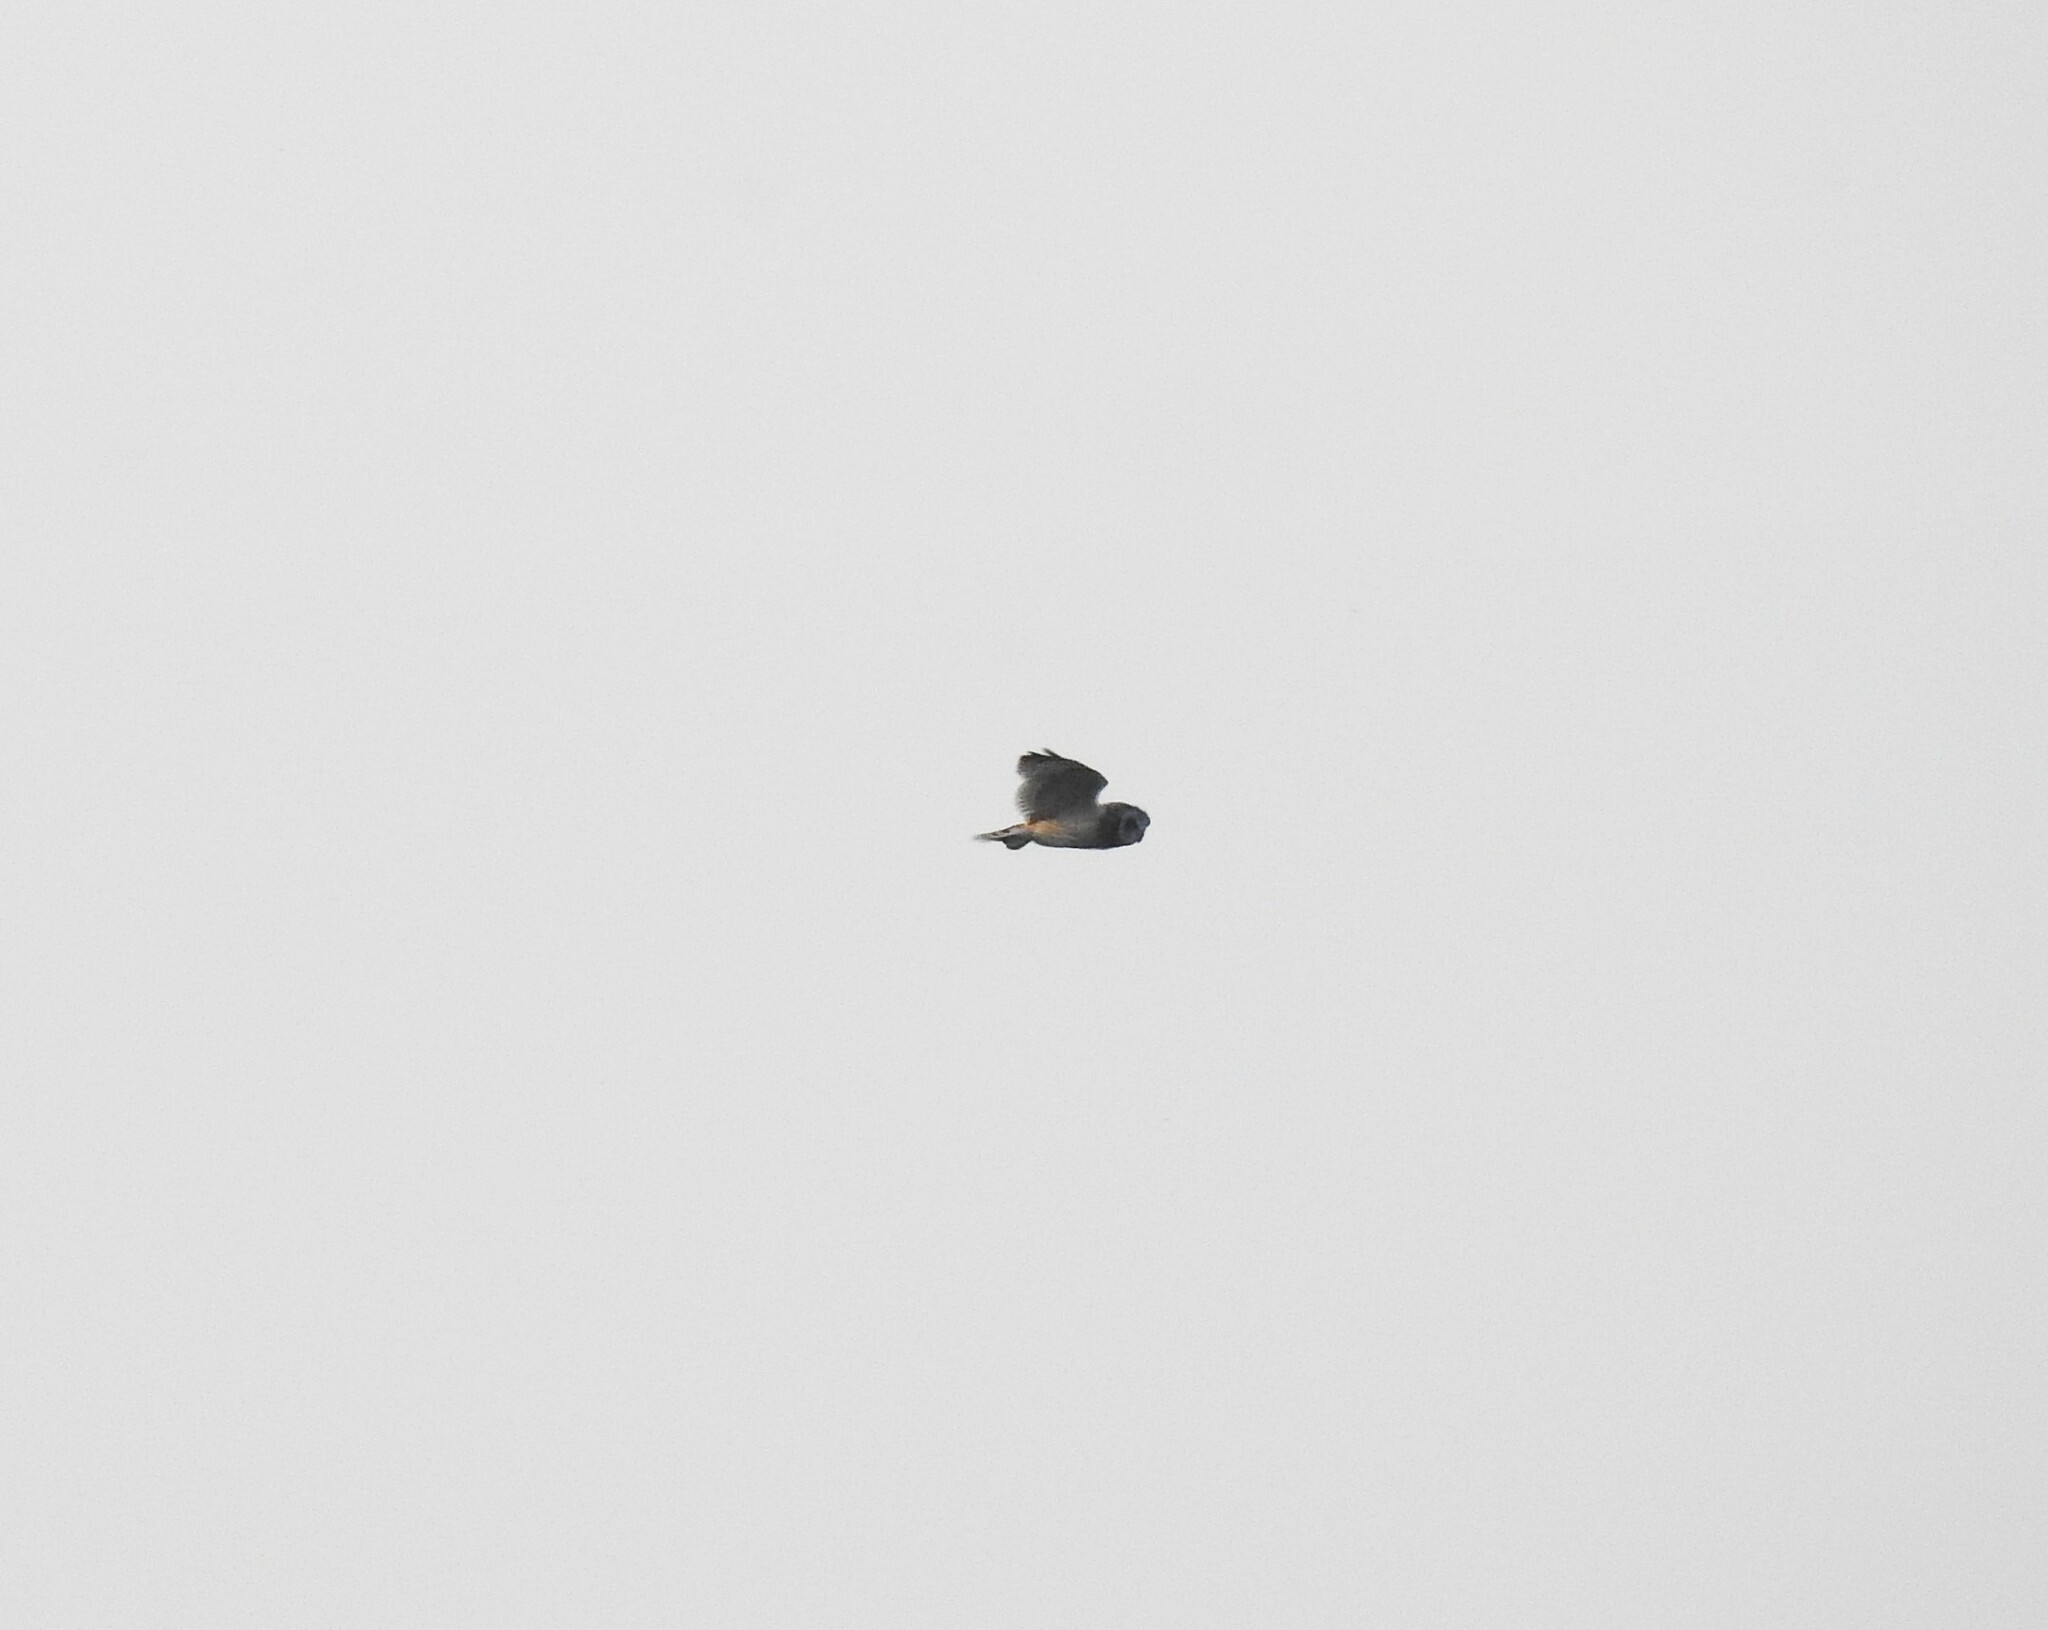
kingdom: Animalia
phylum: Chordata
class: Aves
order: Strigiformes
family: Strigidae
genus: Asio
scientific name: Asio flammeus
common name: Short-eared owl
